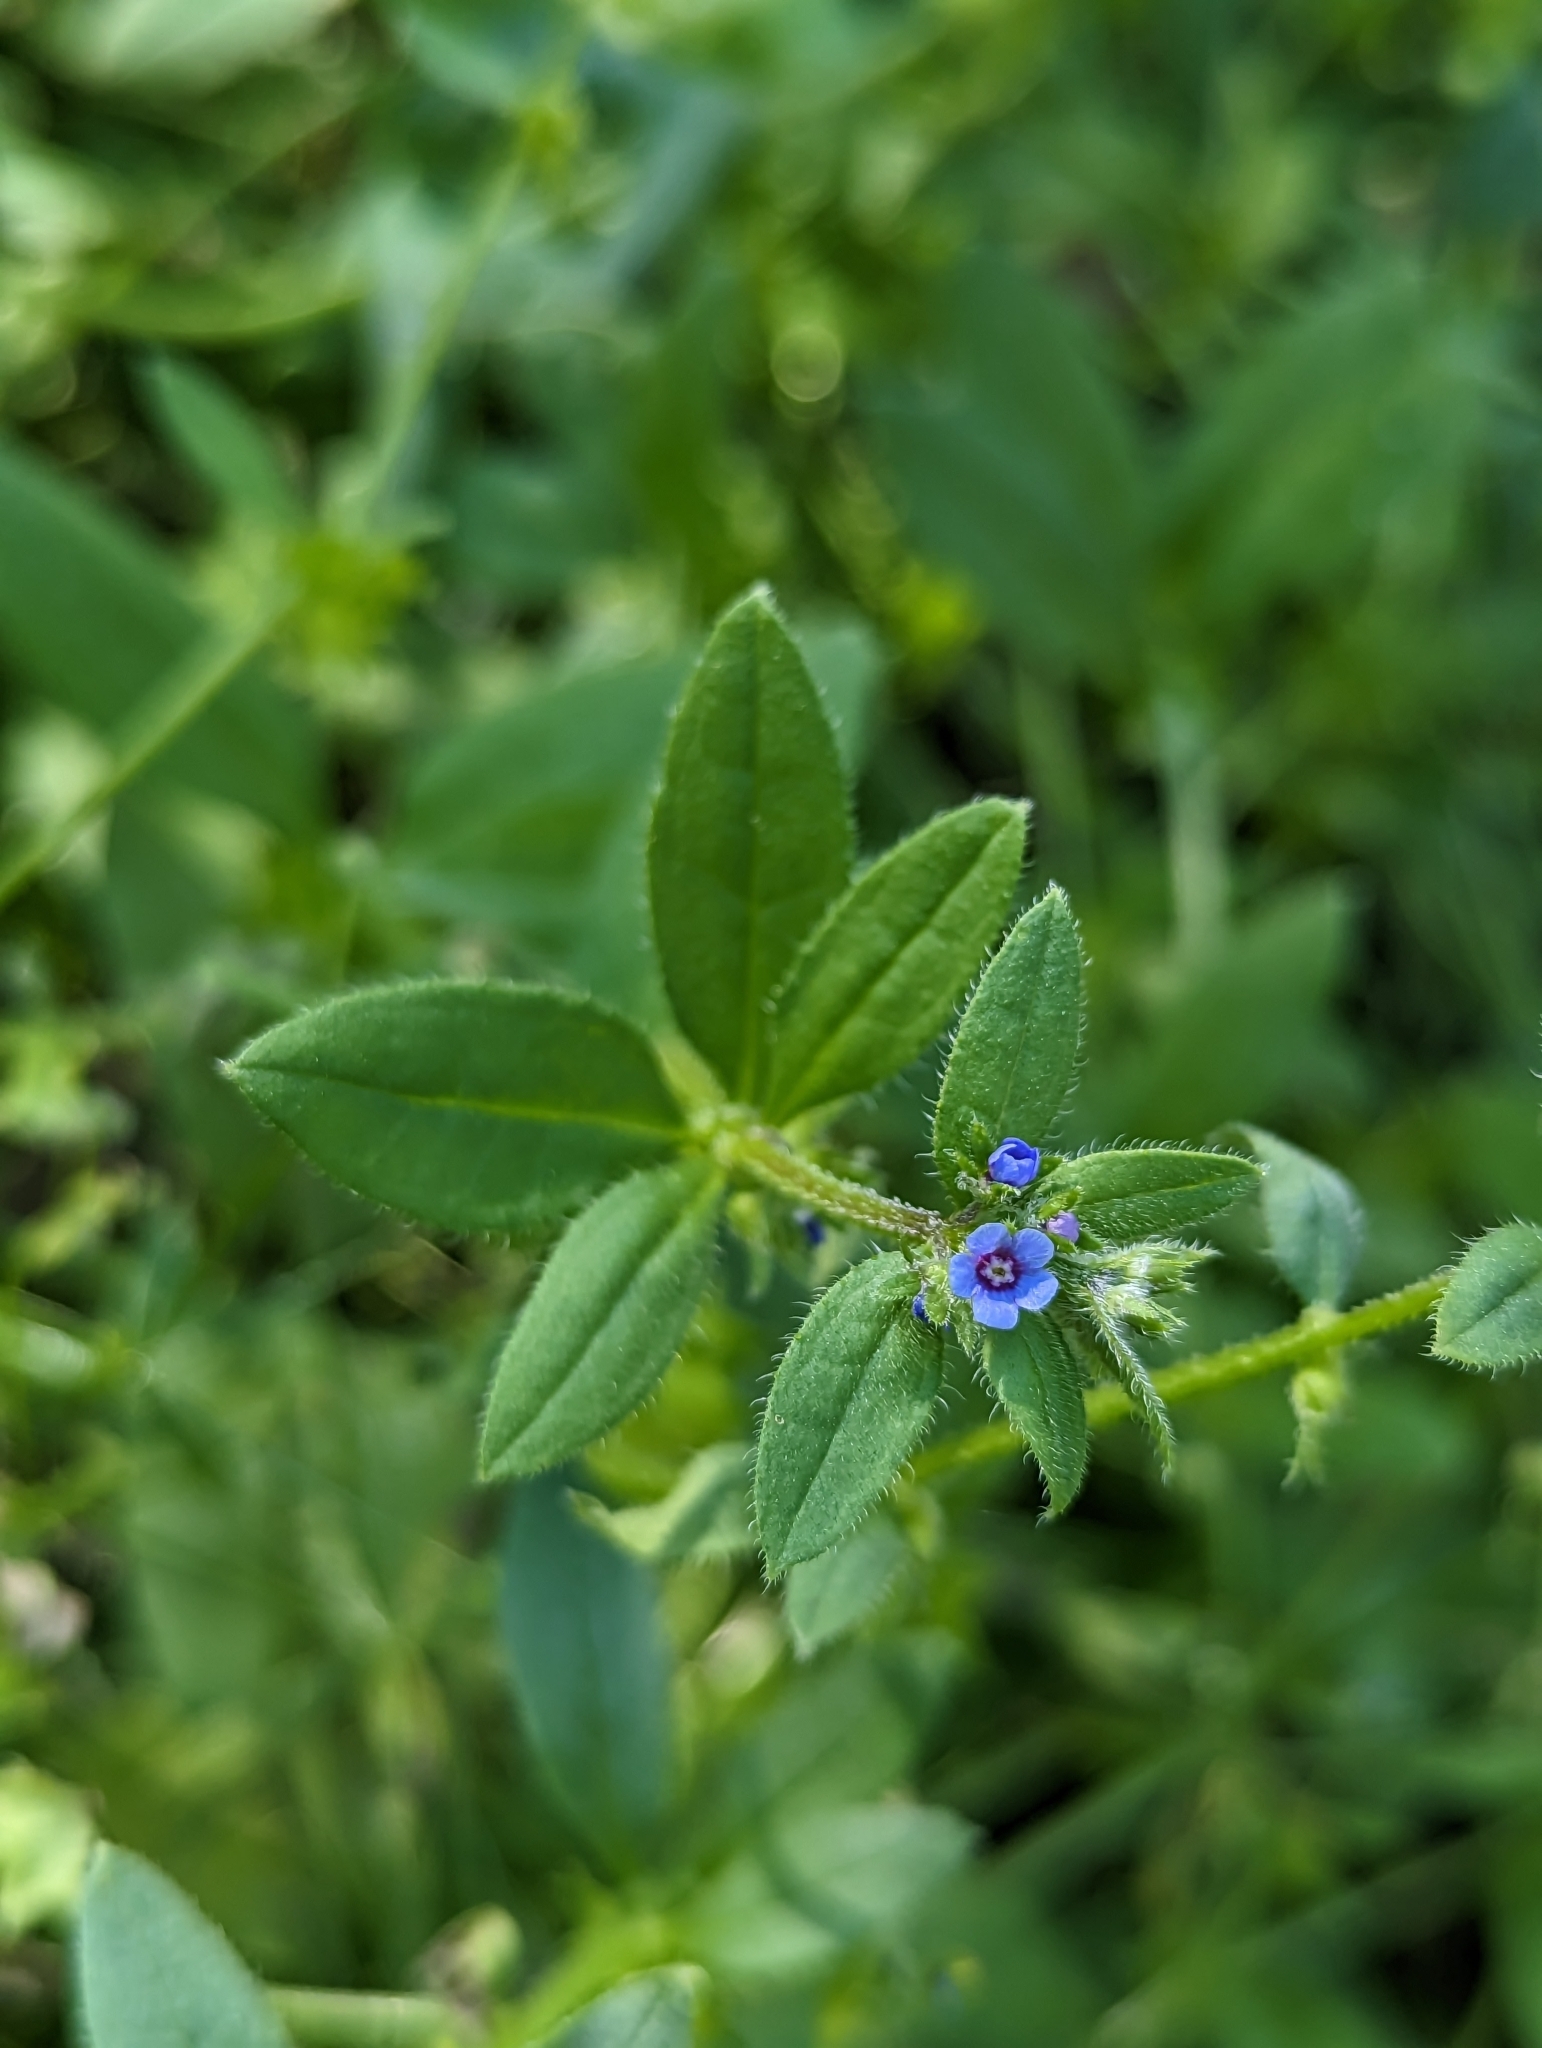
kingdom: Plantae
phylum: Tracheophyta
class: Magnoliopsida
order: Boraginales
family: Boraginaceae
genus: Asperugo
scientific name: Asperugo procumbens
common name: Madwort
